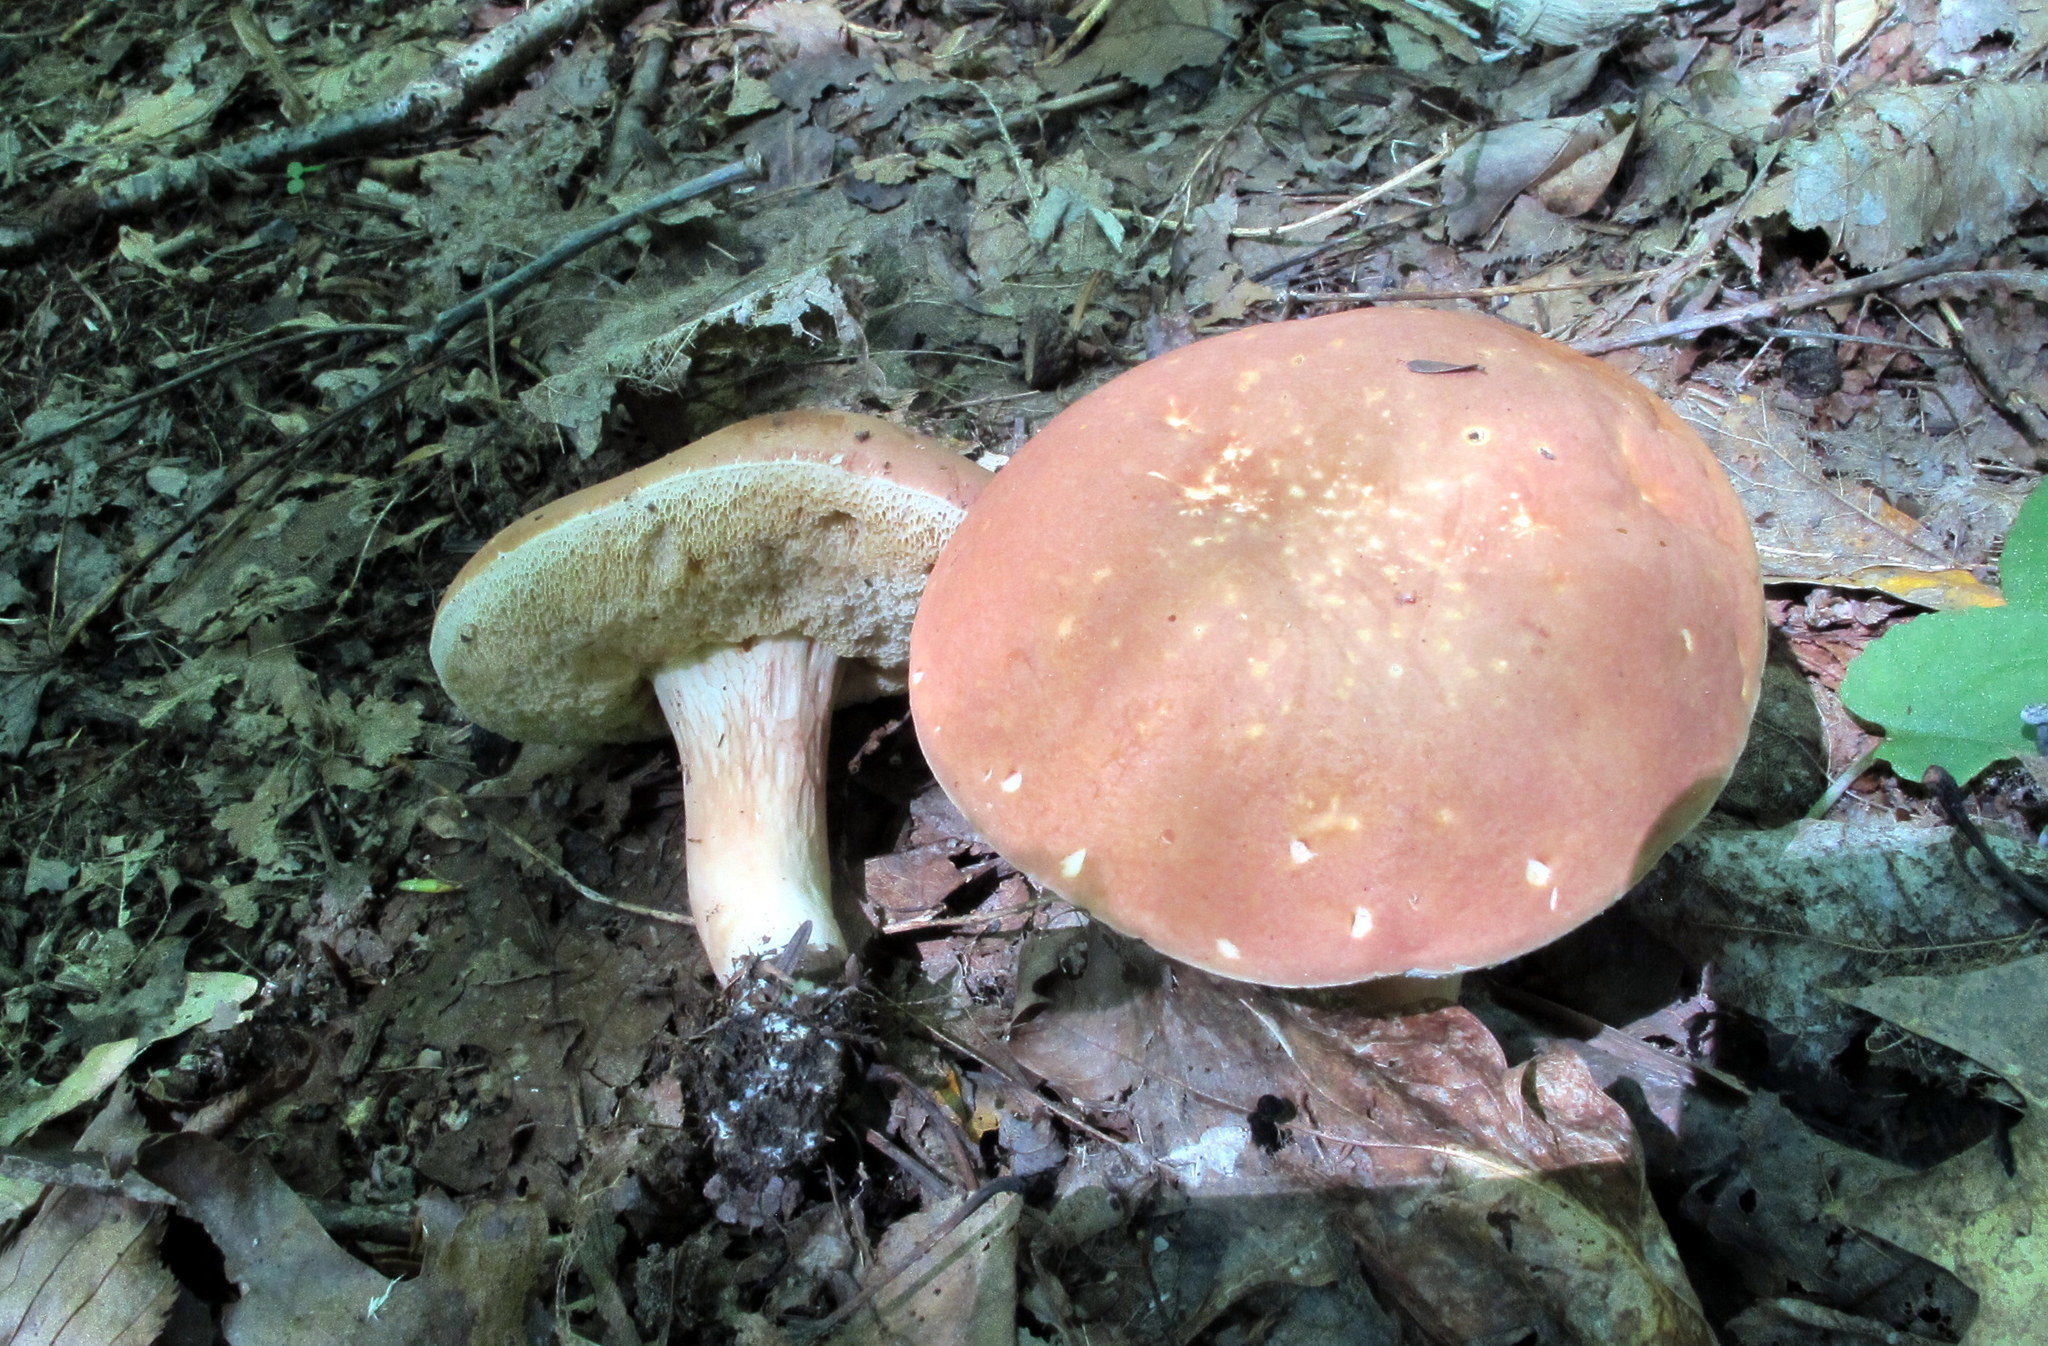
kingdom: Fungi
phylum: Basidiomycota
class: Agaricomycetes
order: Boletales
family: Boletaceae
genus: Xanthoconium
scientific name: Xanthoconium affine
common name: Spotted bolete
